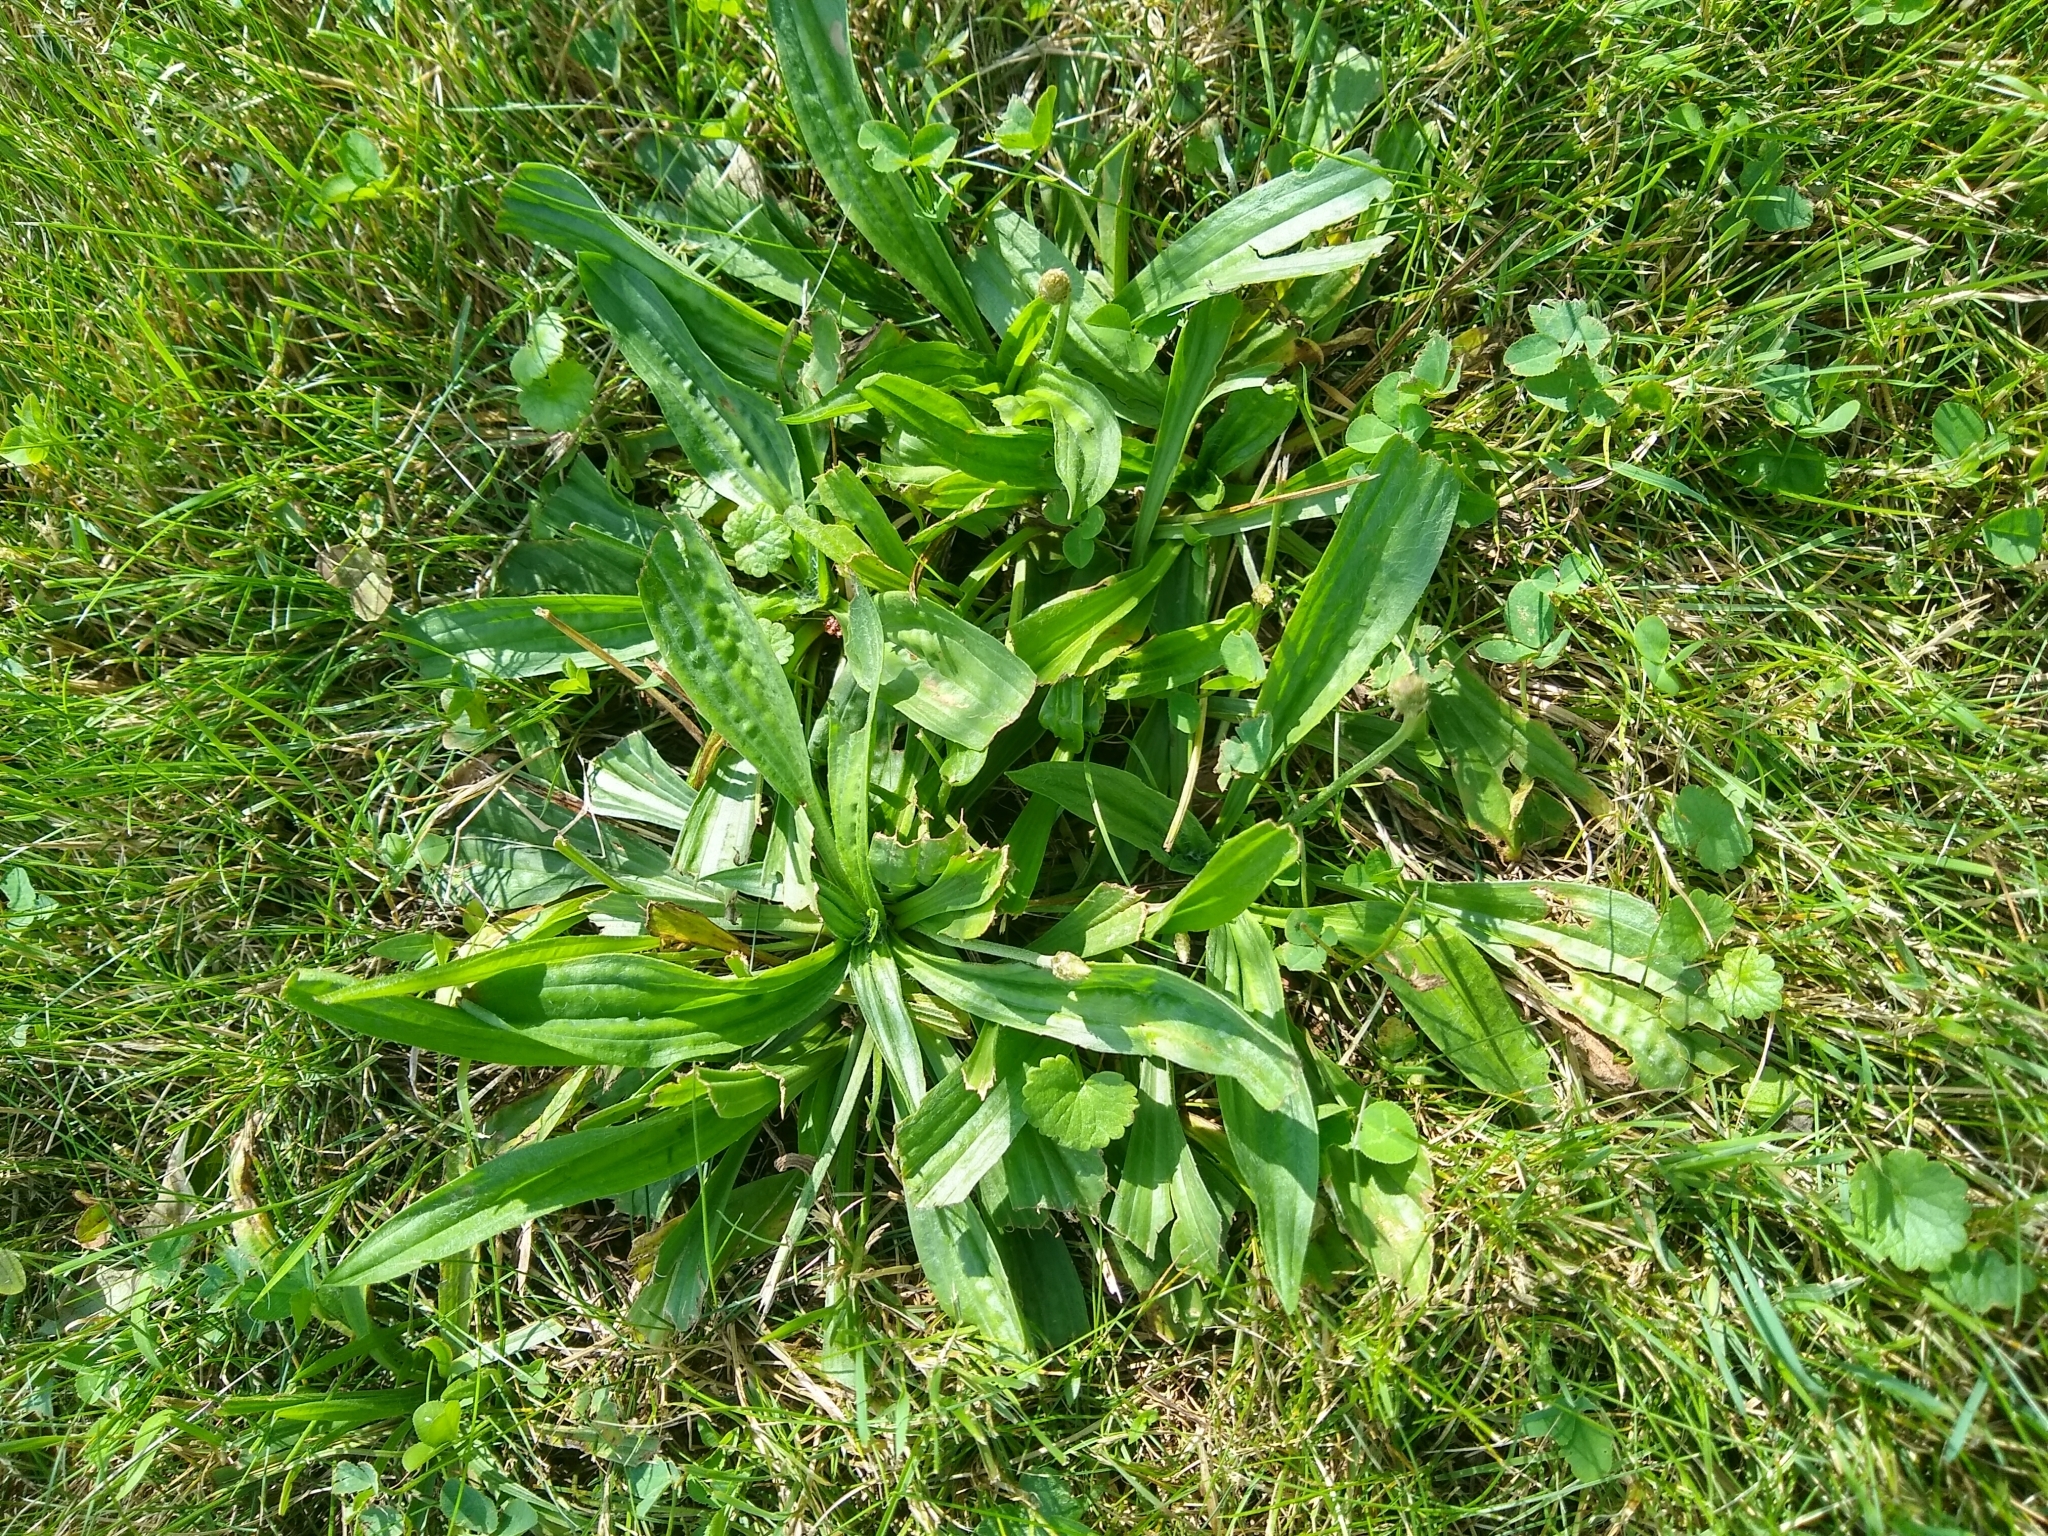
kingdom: Plantae
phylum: Tracheophyta
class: Magnoliopsida
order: Lamiales
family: Plantaginaceae
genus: Plantago
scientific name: Plantago lanceolata
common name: Ribwort plantain
